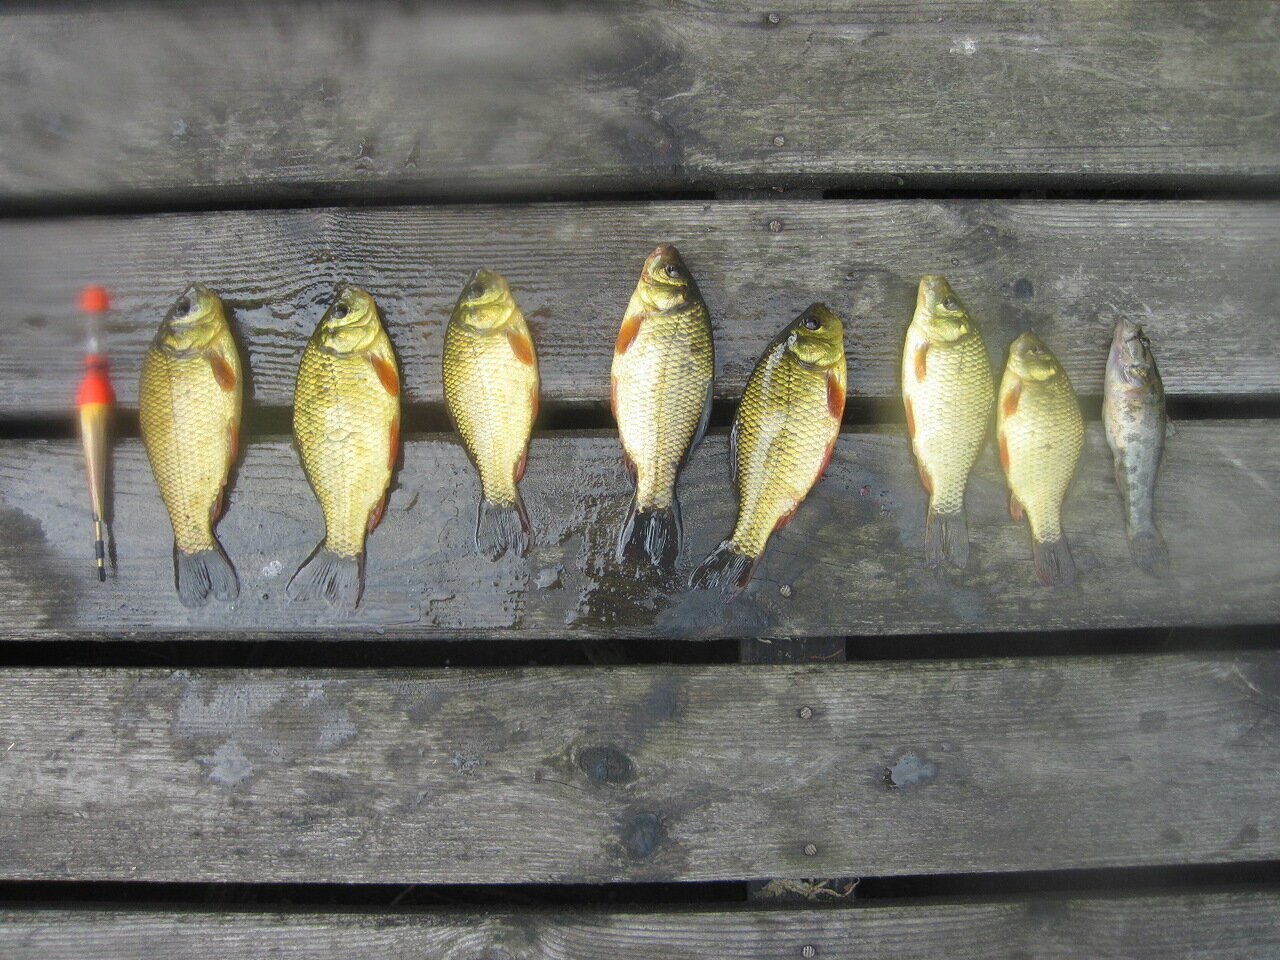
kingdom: Animalia
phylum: Chordata
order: Perciformes
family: Odontobutidae
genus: Perccottus
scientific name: Perccottus glenii
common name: Amur sleeper
